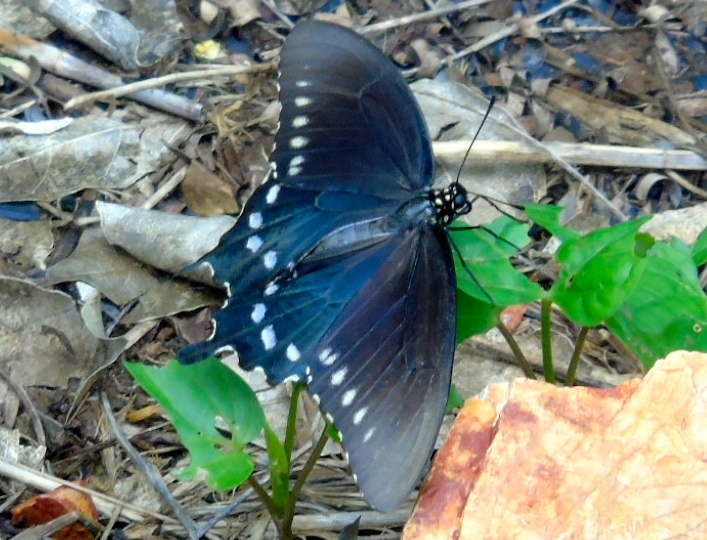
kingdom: Animalia
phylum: Arthropoda
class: Insecta
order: Lepidoptera
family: Papilionidae
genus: Battus
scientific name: Battus philenor
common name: Pipevine swallowtail
